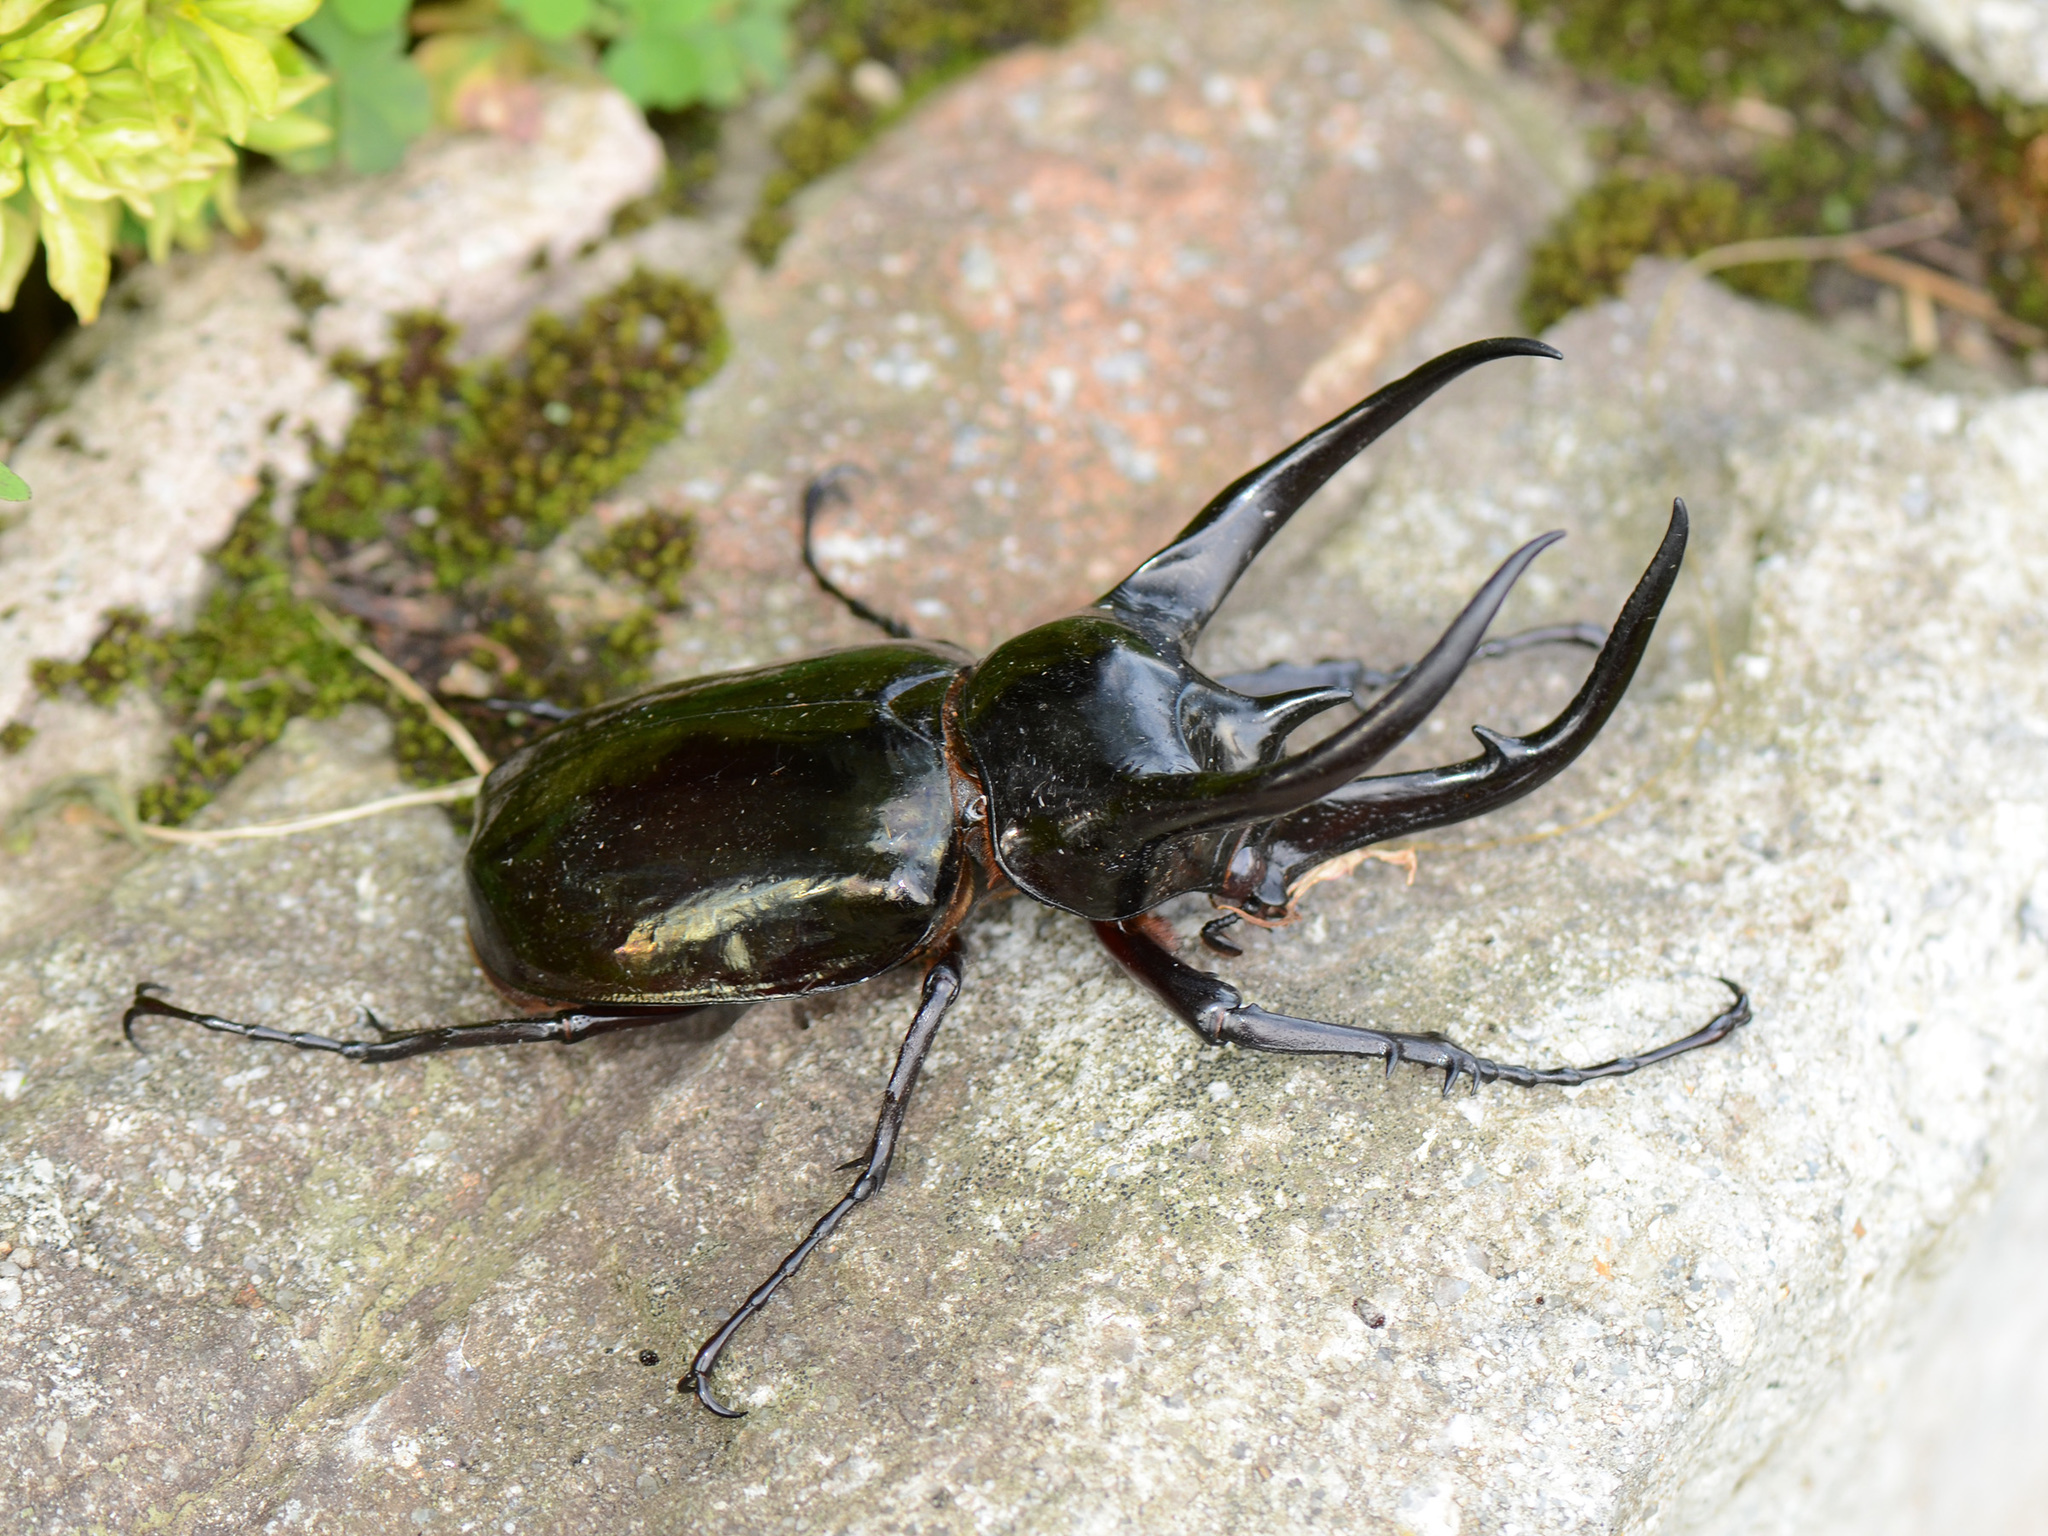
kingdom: Animalia
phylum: Arthropoda
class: Insecta
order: Coleoptera
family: Scarabaeidae
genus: Chalcosoma
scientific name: Chalcosoma chiron
